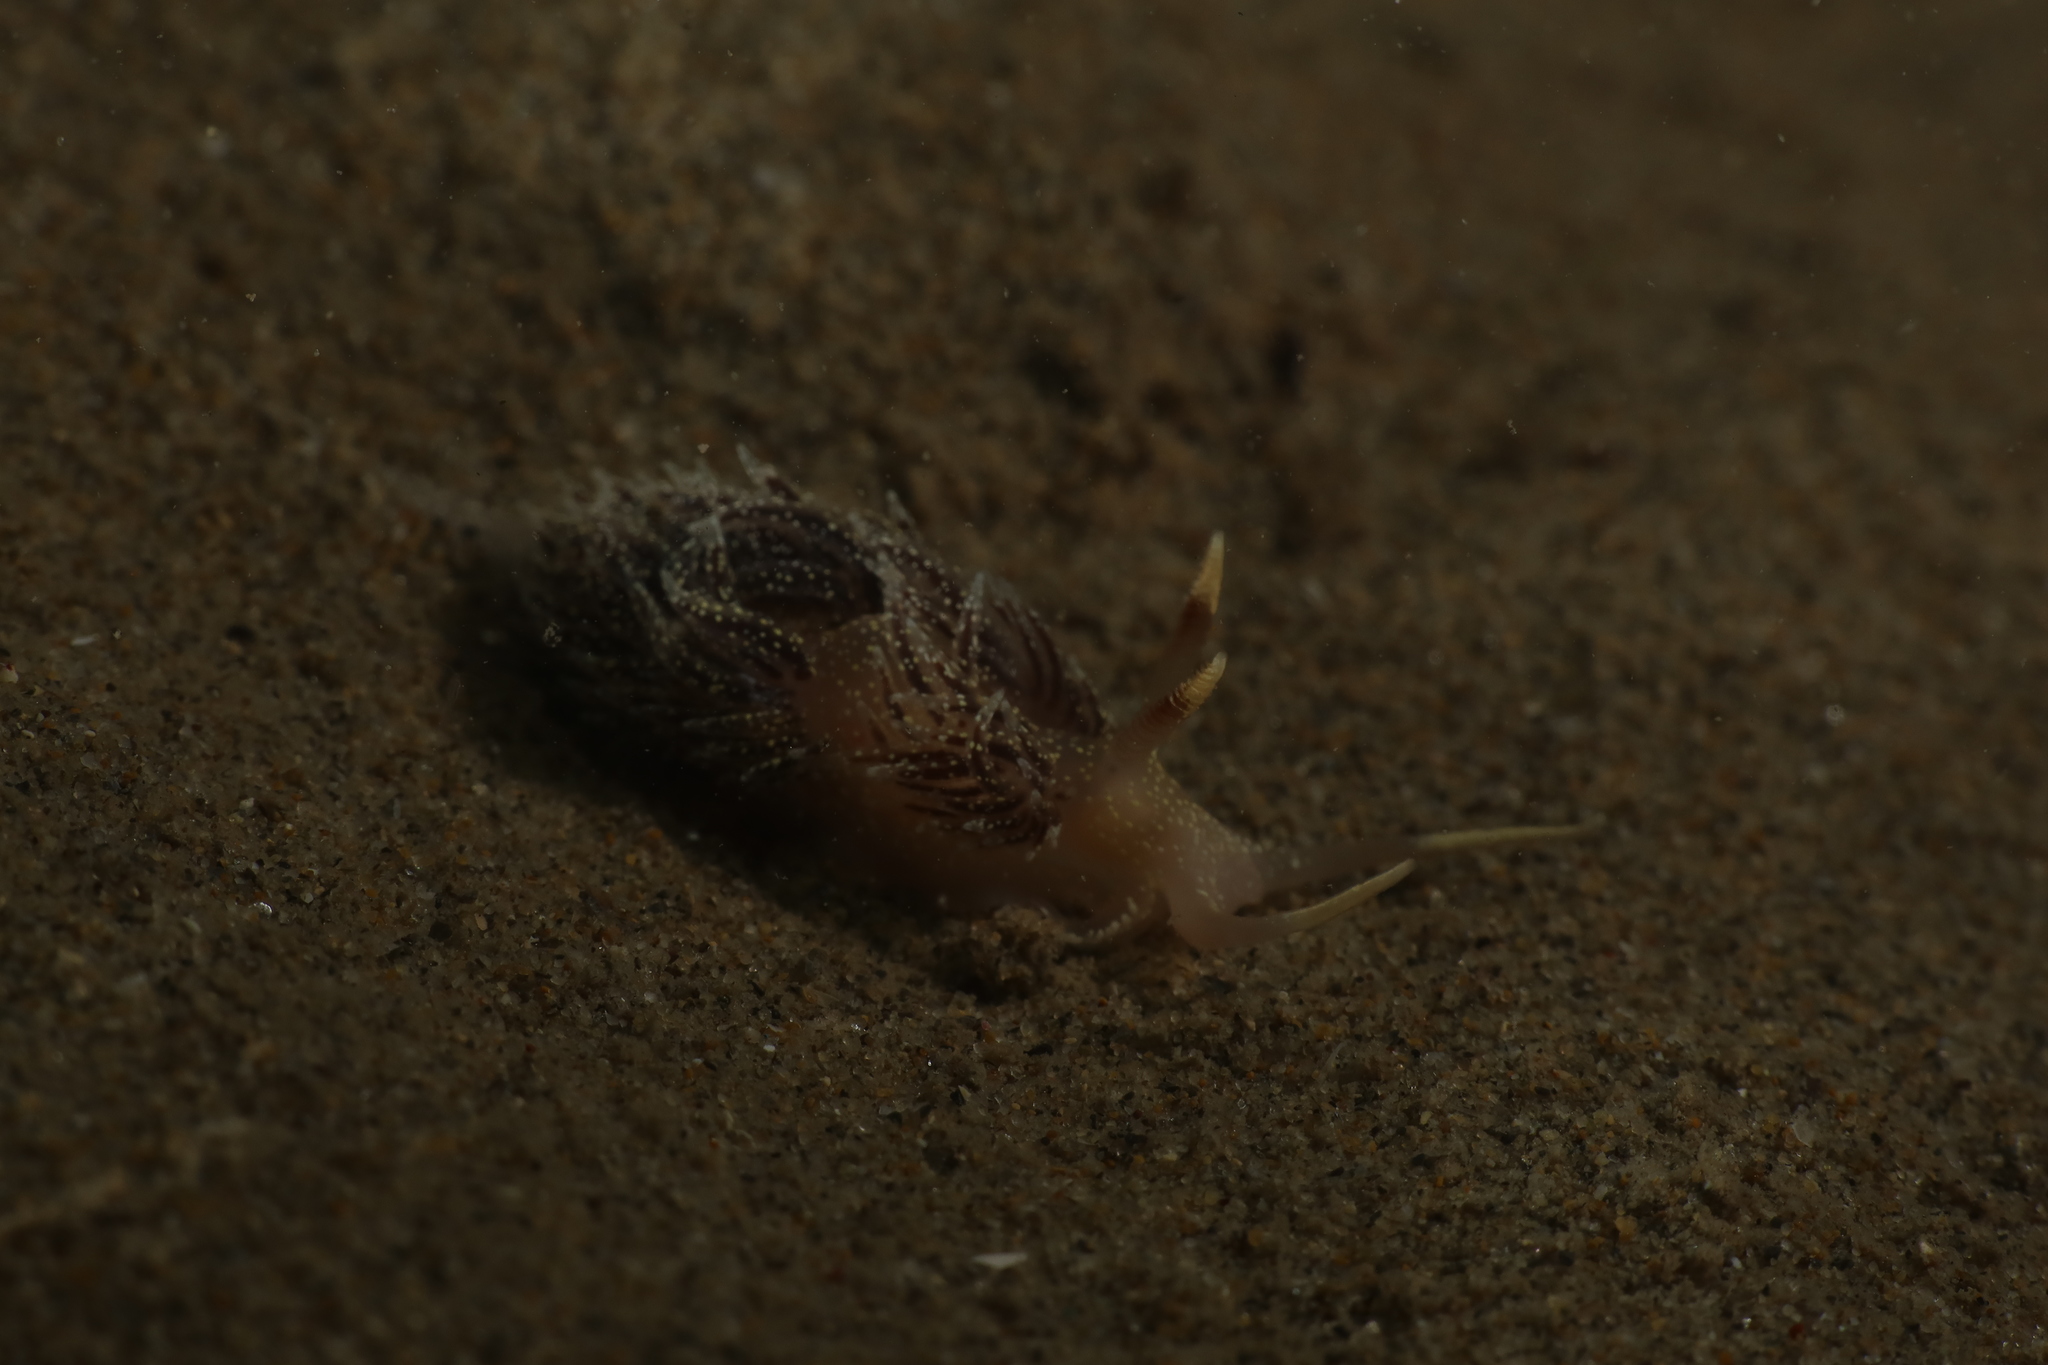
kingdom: Animalia
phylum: Mollusca
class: Gastropoda
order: Nudibranchia
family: Facelinidae
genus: Facelina
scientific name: Facelina annulicornis
